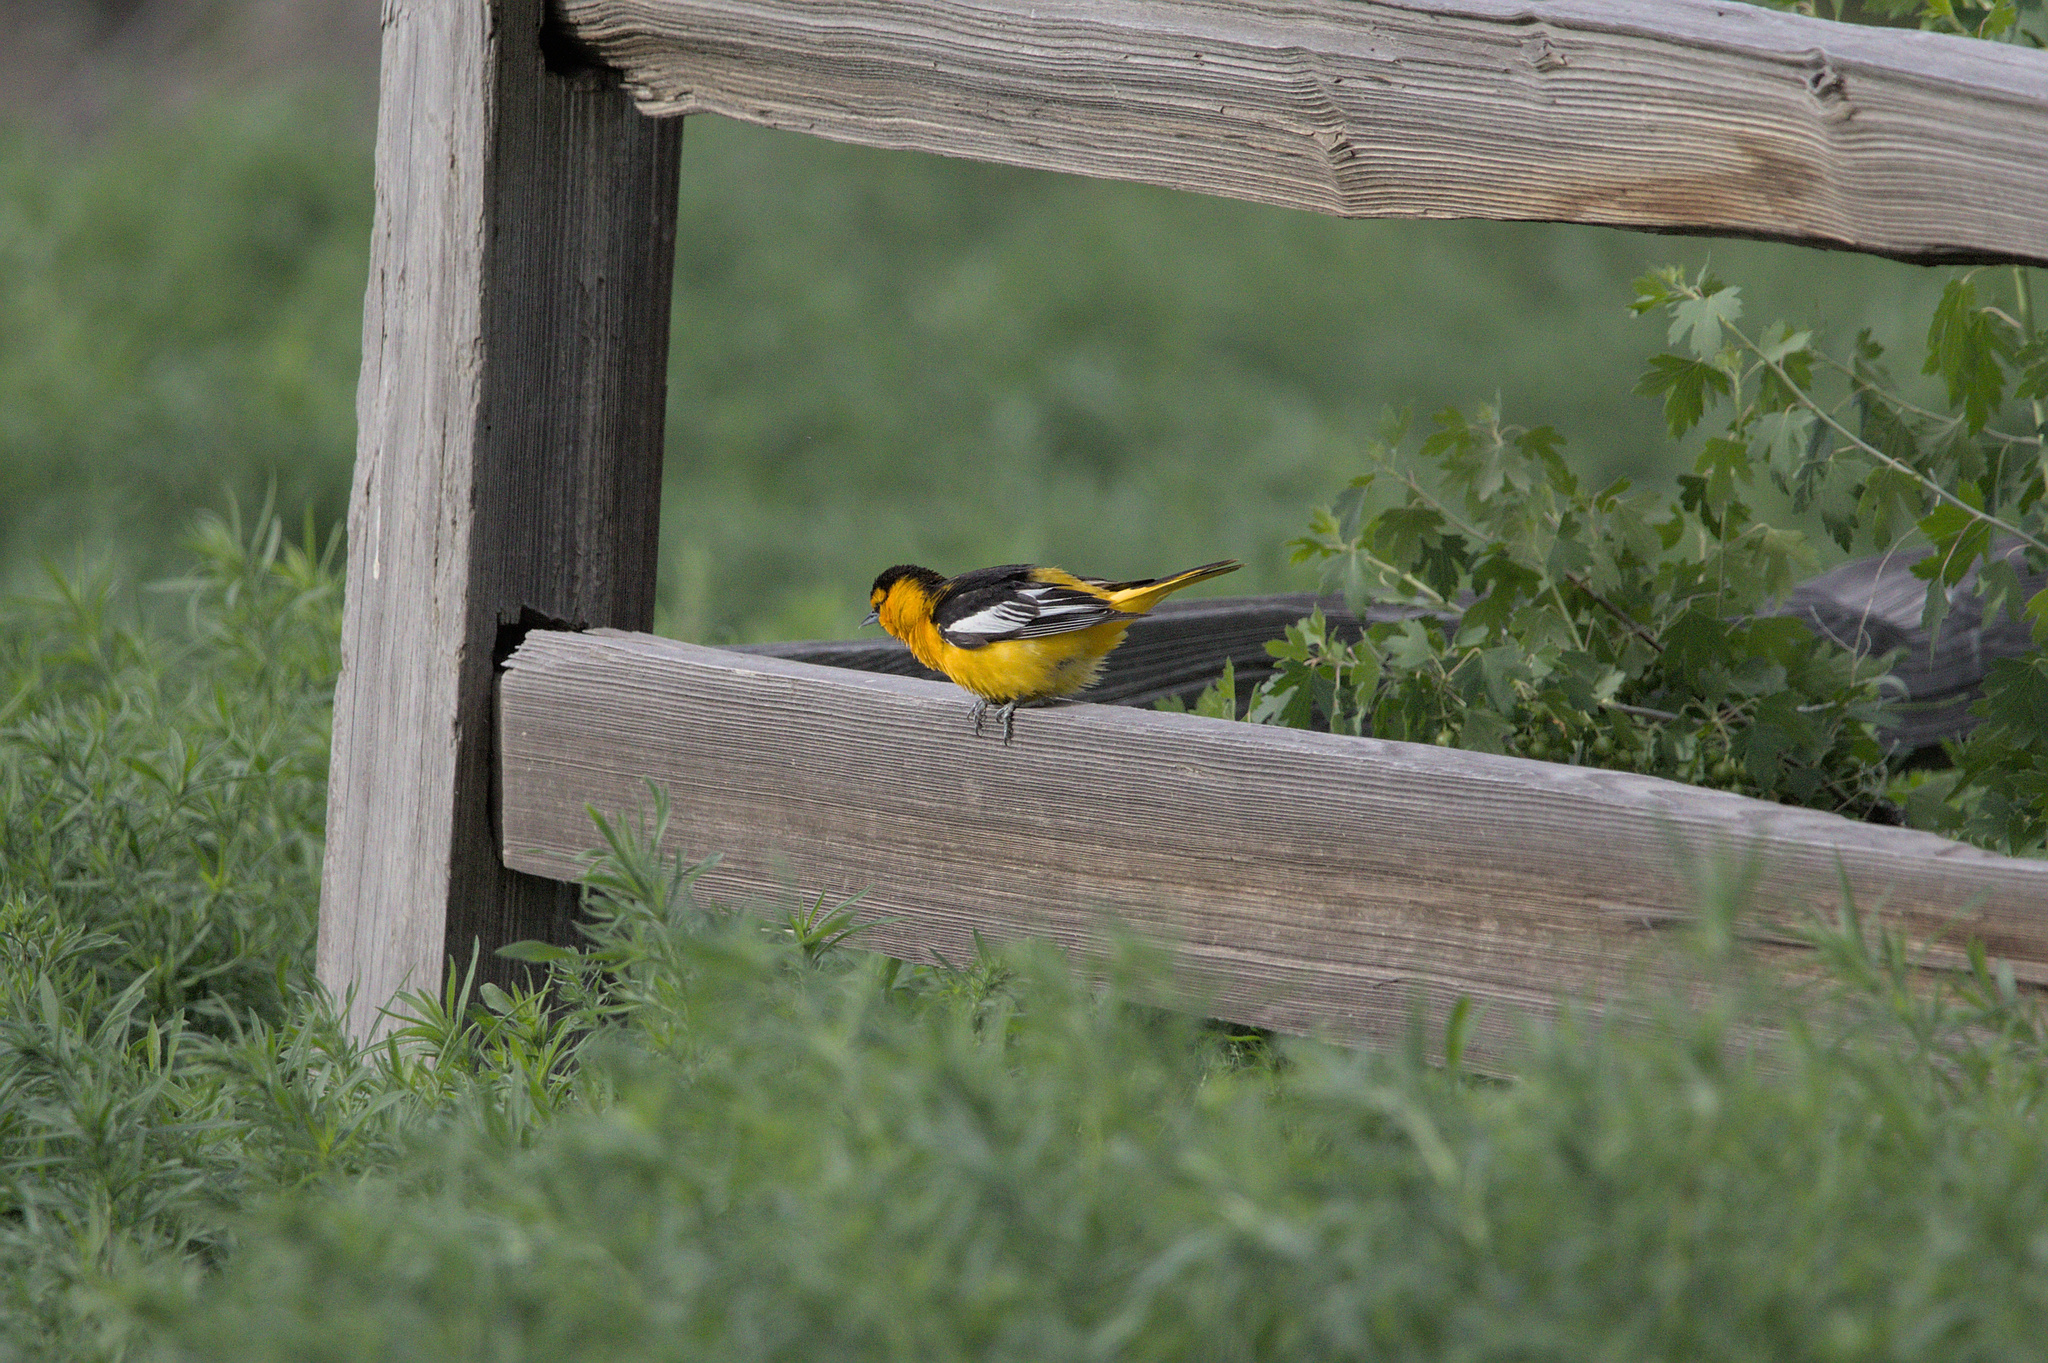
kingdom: Animalia
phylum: Chordata
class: Aves
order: Passeriformes
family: Icteridae
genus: Icterus
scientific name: Icterus bullockii
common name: Bullock's oriole
